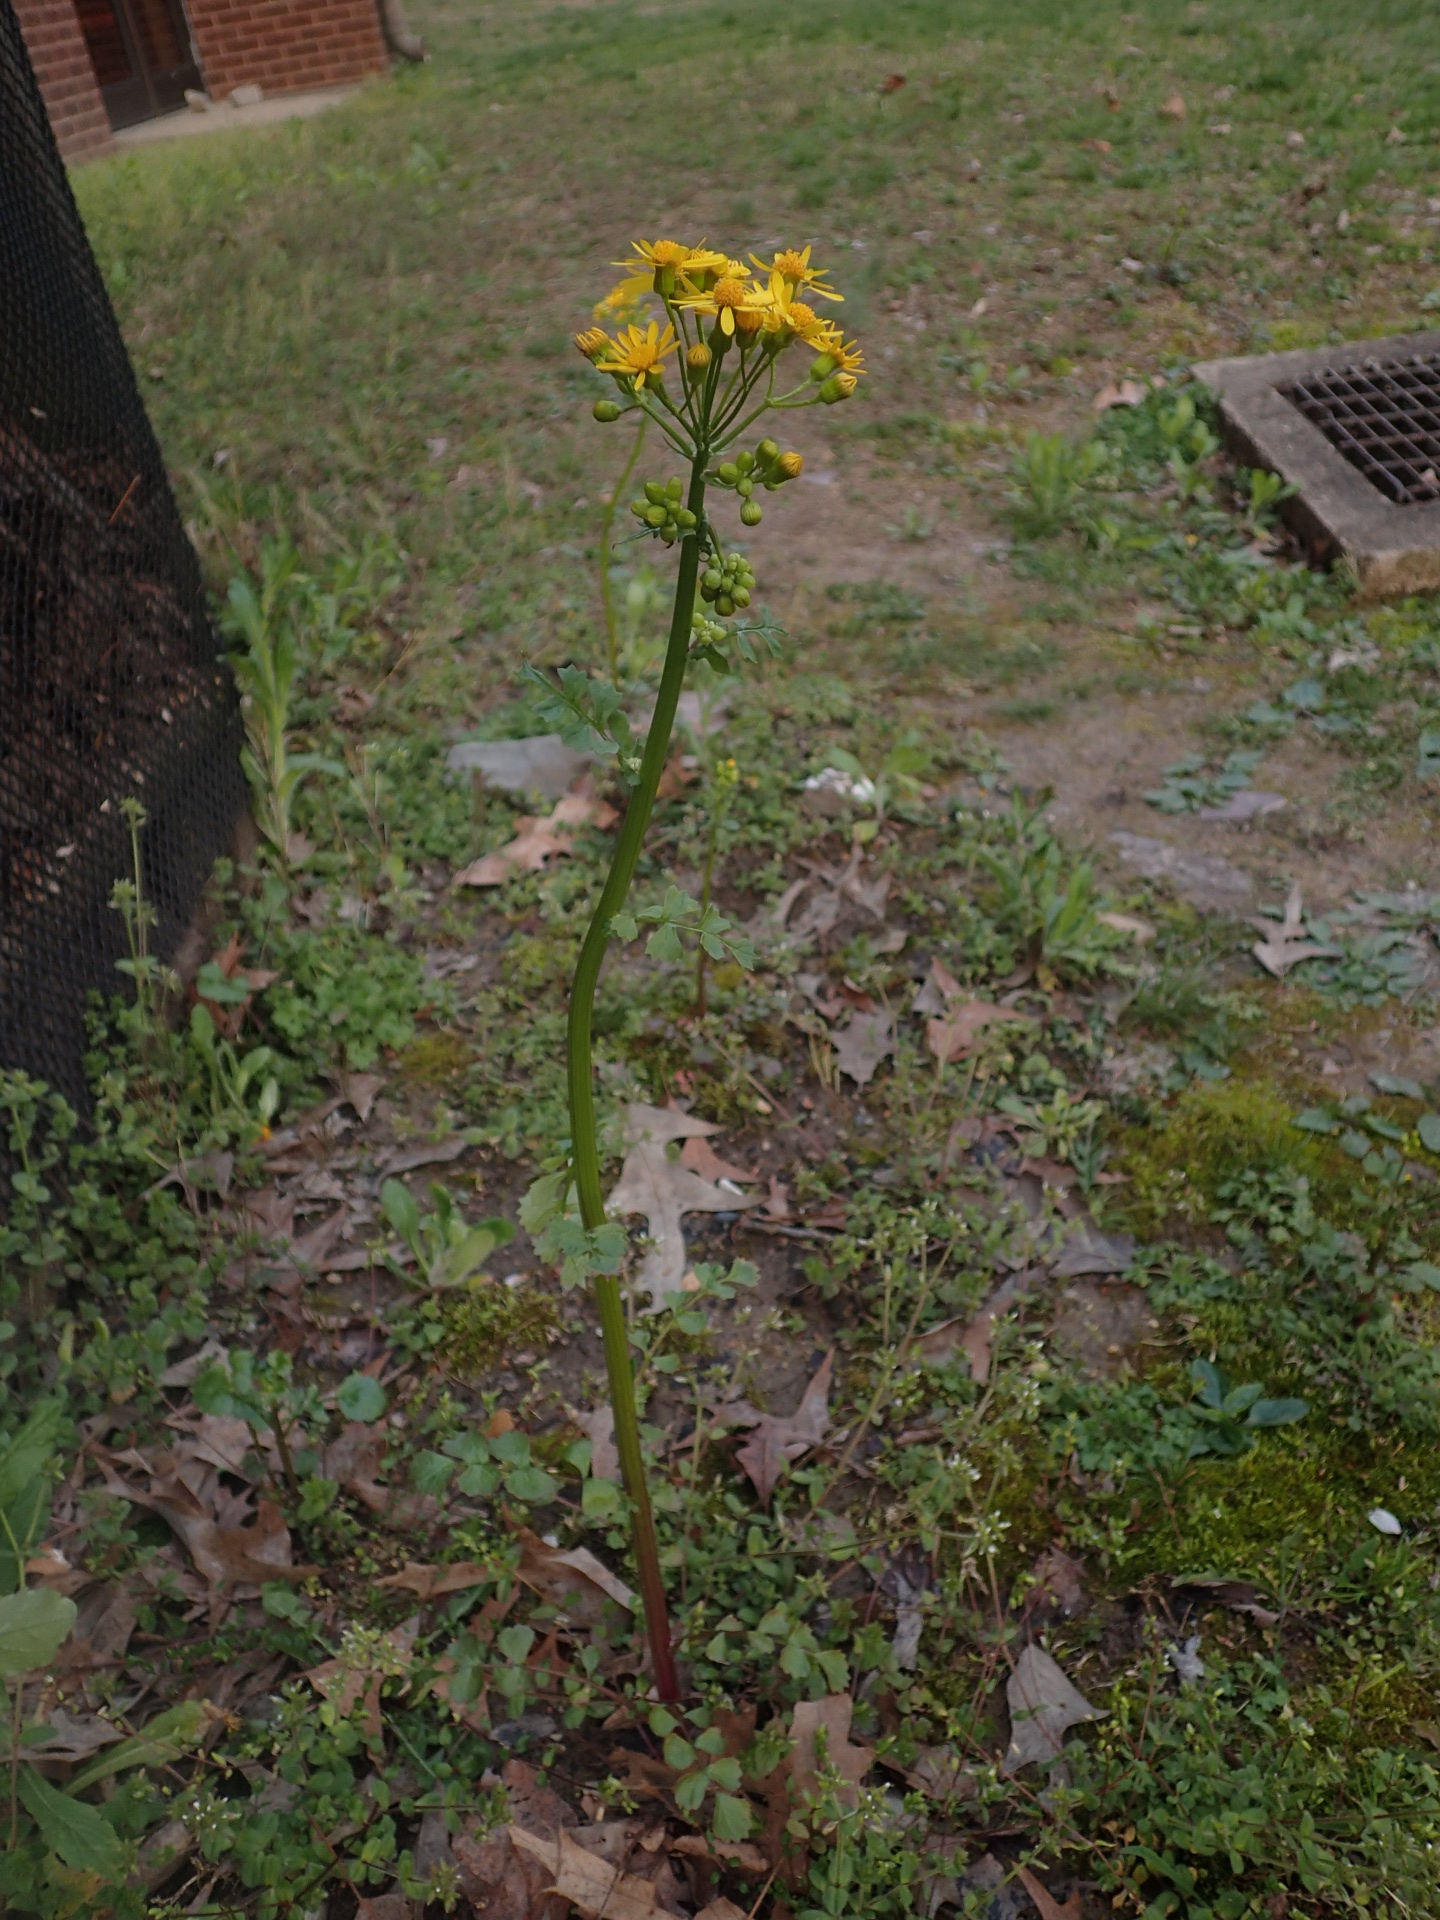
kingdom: Plantae
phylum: Tracheophyta
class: Magnoliopsida
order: Asterales
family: Asteraceae
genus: Packera
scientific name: Packera glabella
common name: Butterweed
